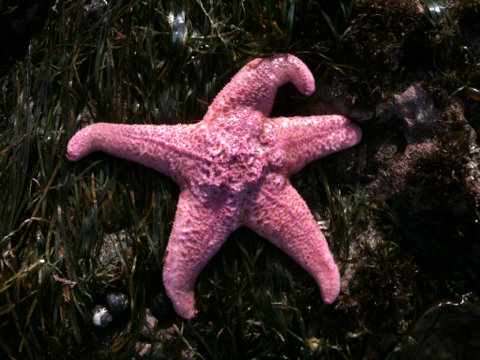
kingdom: Animalia
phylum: Echinodermata
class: Asteroidea
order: Forcipulatida
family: Asteriidae
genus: Pisaster
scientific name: Pisaster brevispinus
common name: Pink stars
